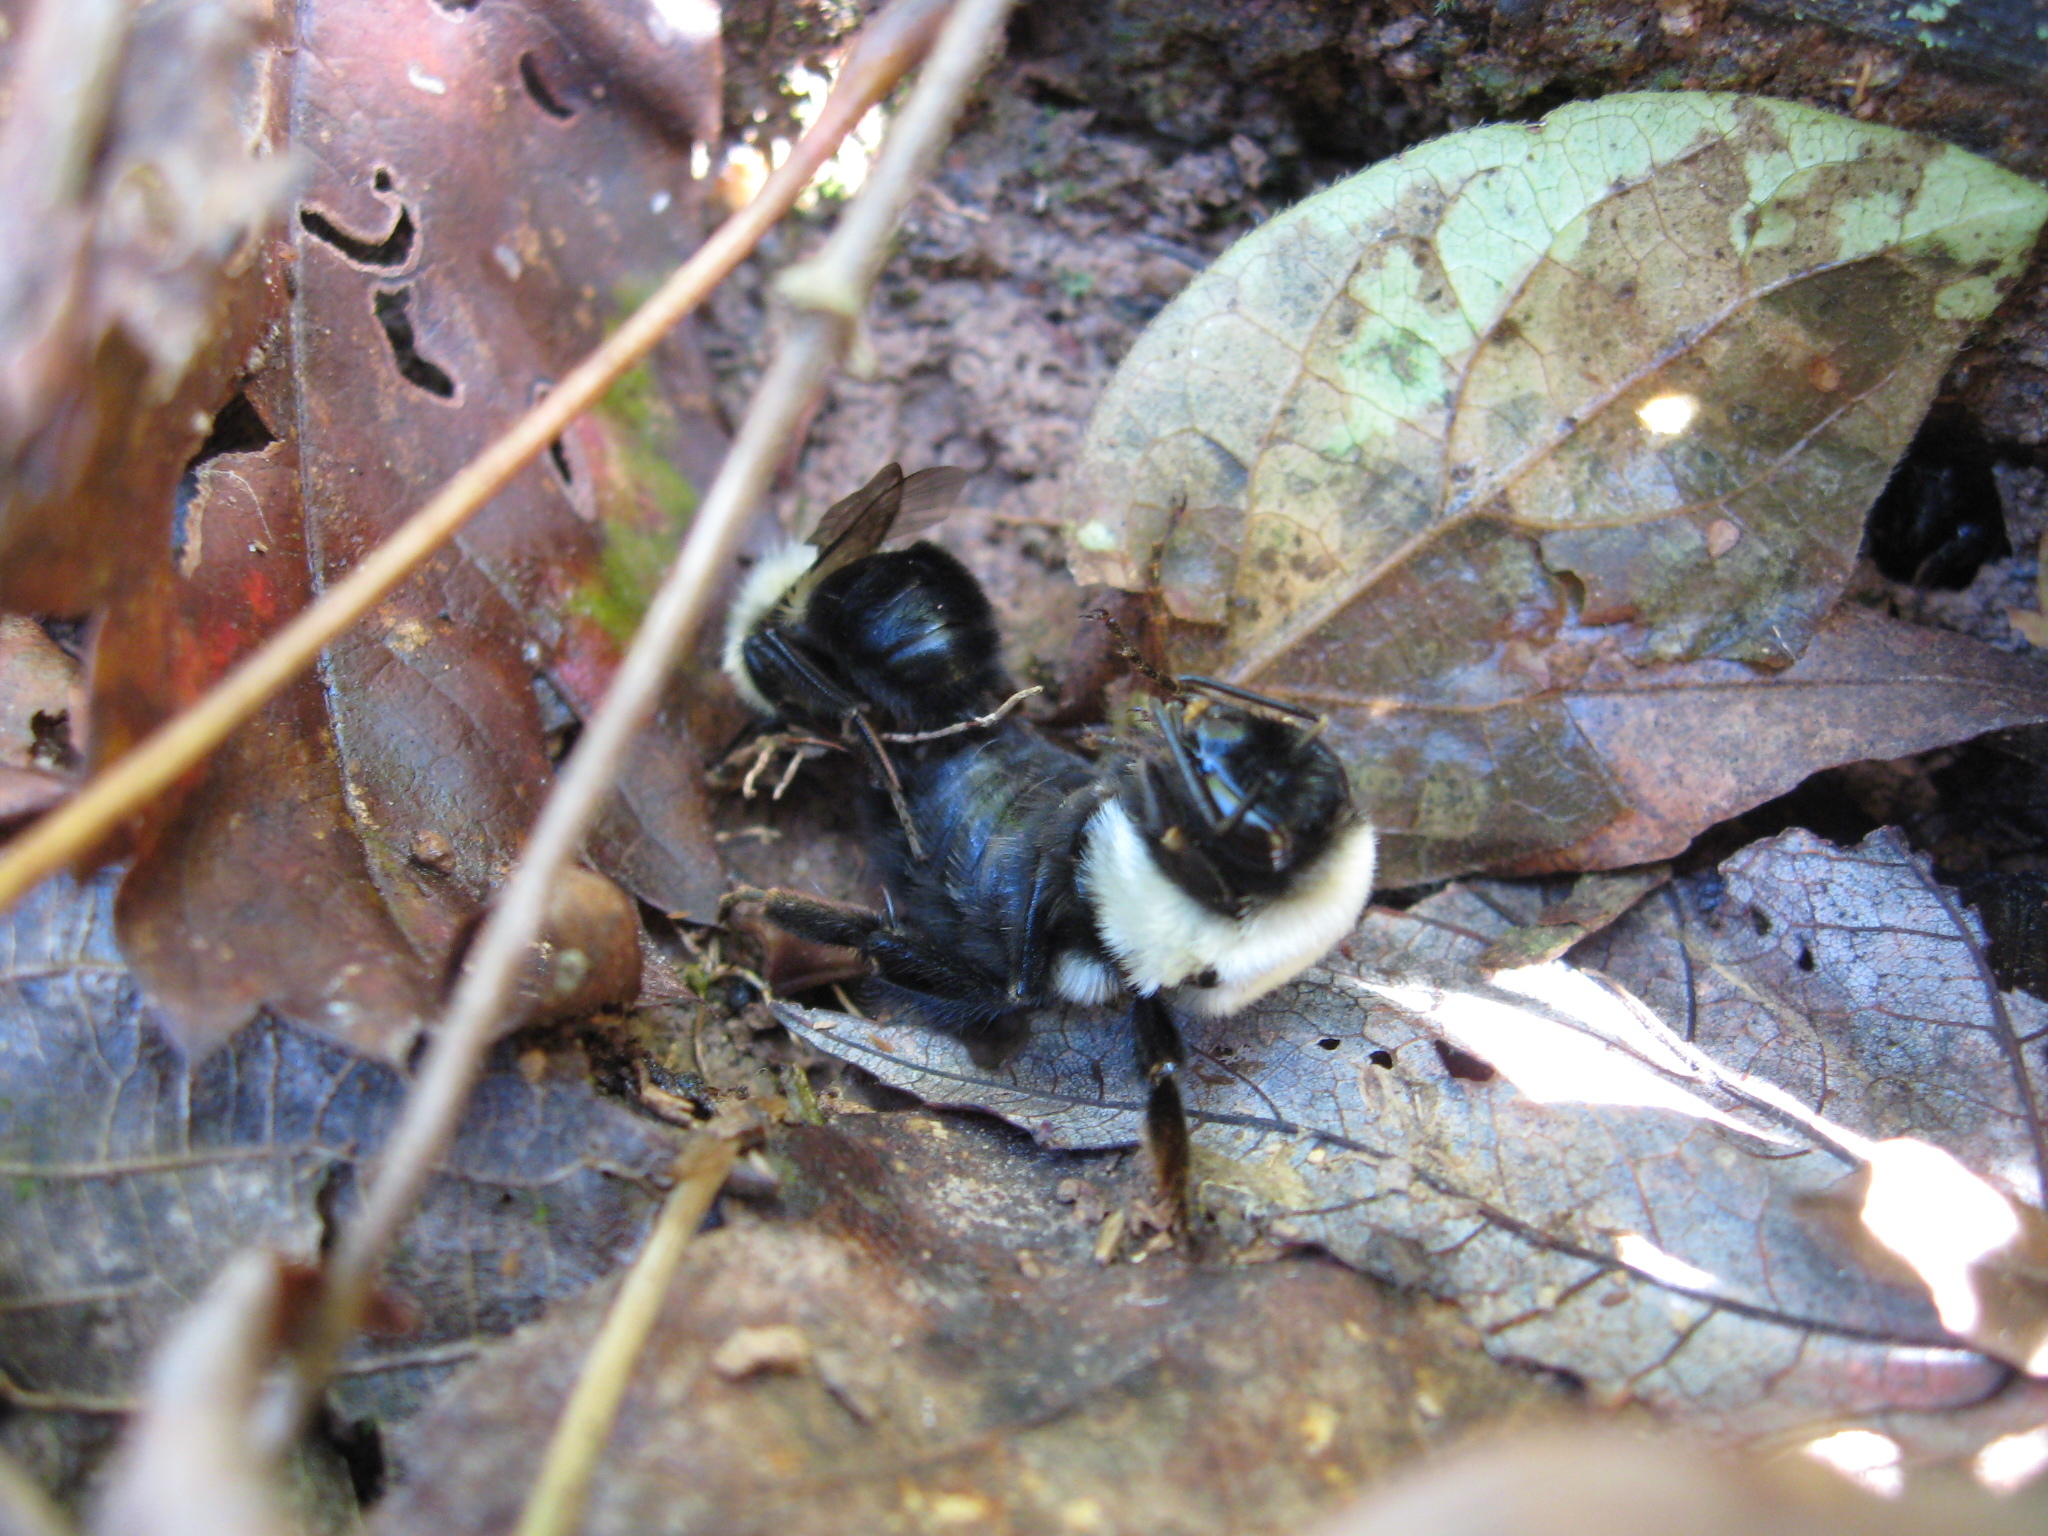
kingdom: Animalia
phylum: Arthropoda
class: Insecta
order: Hymenoptera
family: Apidae
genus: Bombus
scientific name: Bombus impatiens
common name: Common eastern bumble bee
